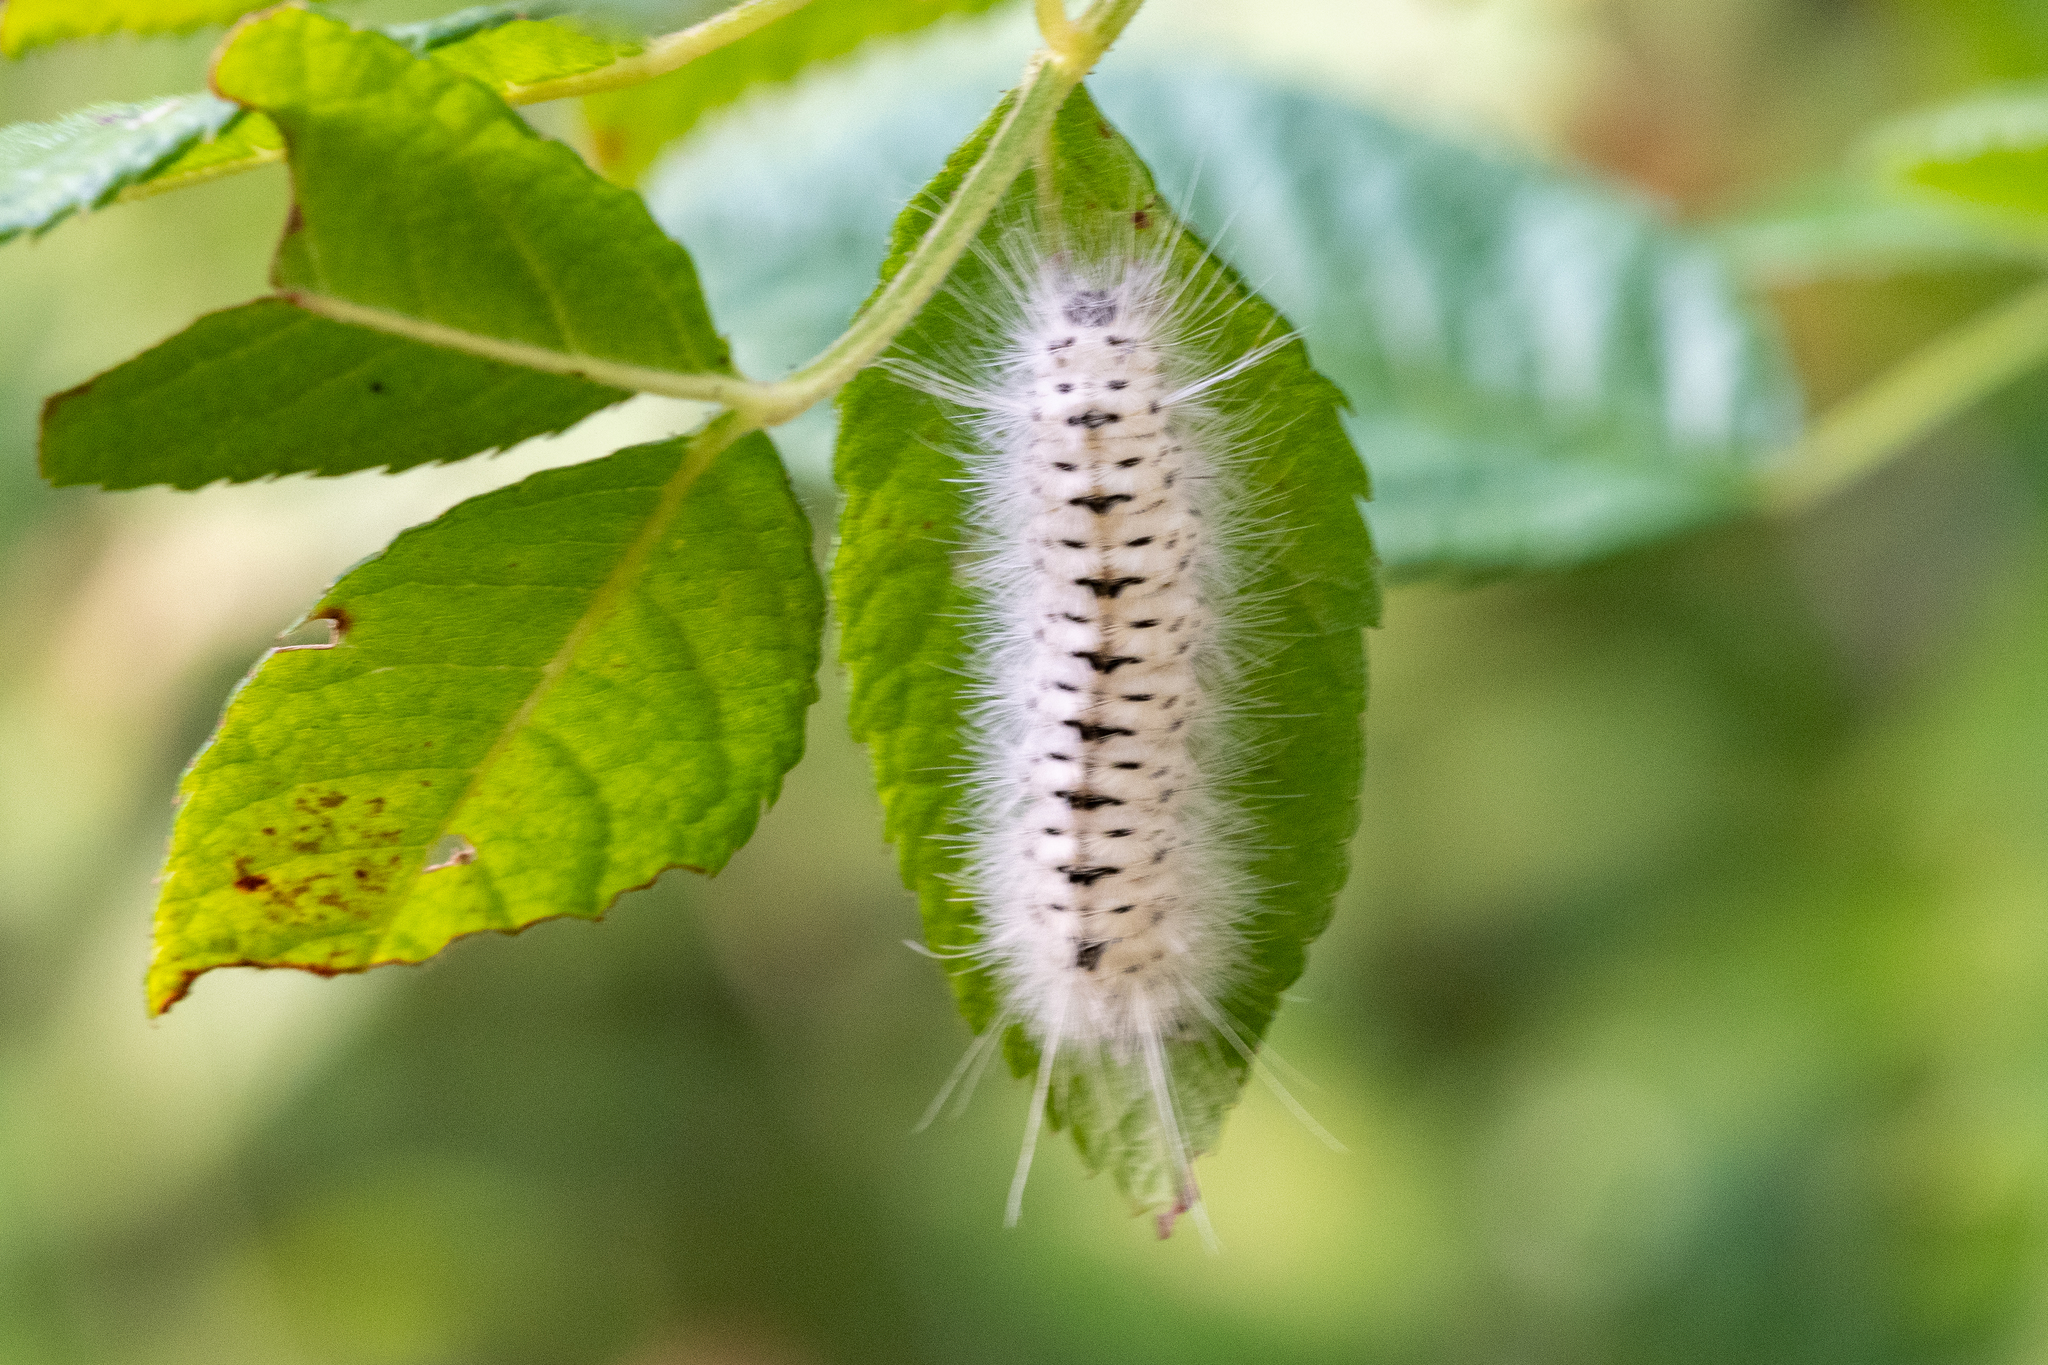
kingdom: Animalia
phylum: Arthropoda
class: Insecta
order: Lepidoptera
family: Erebidae
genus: Lophocampa
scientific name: Lophocampa caryae
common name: Hickory tussock moth
